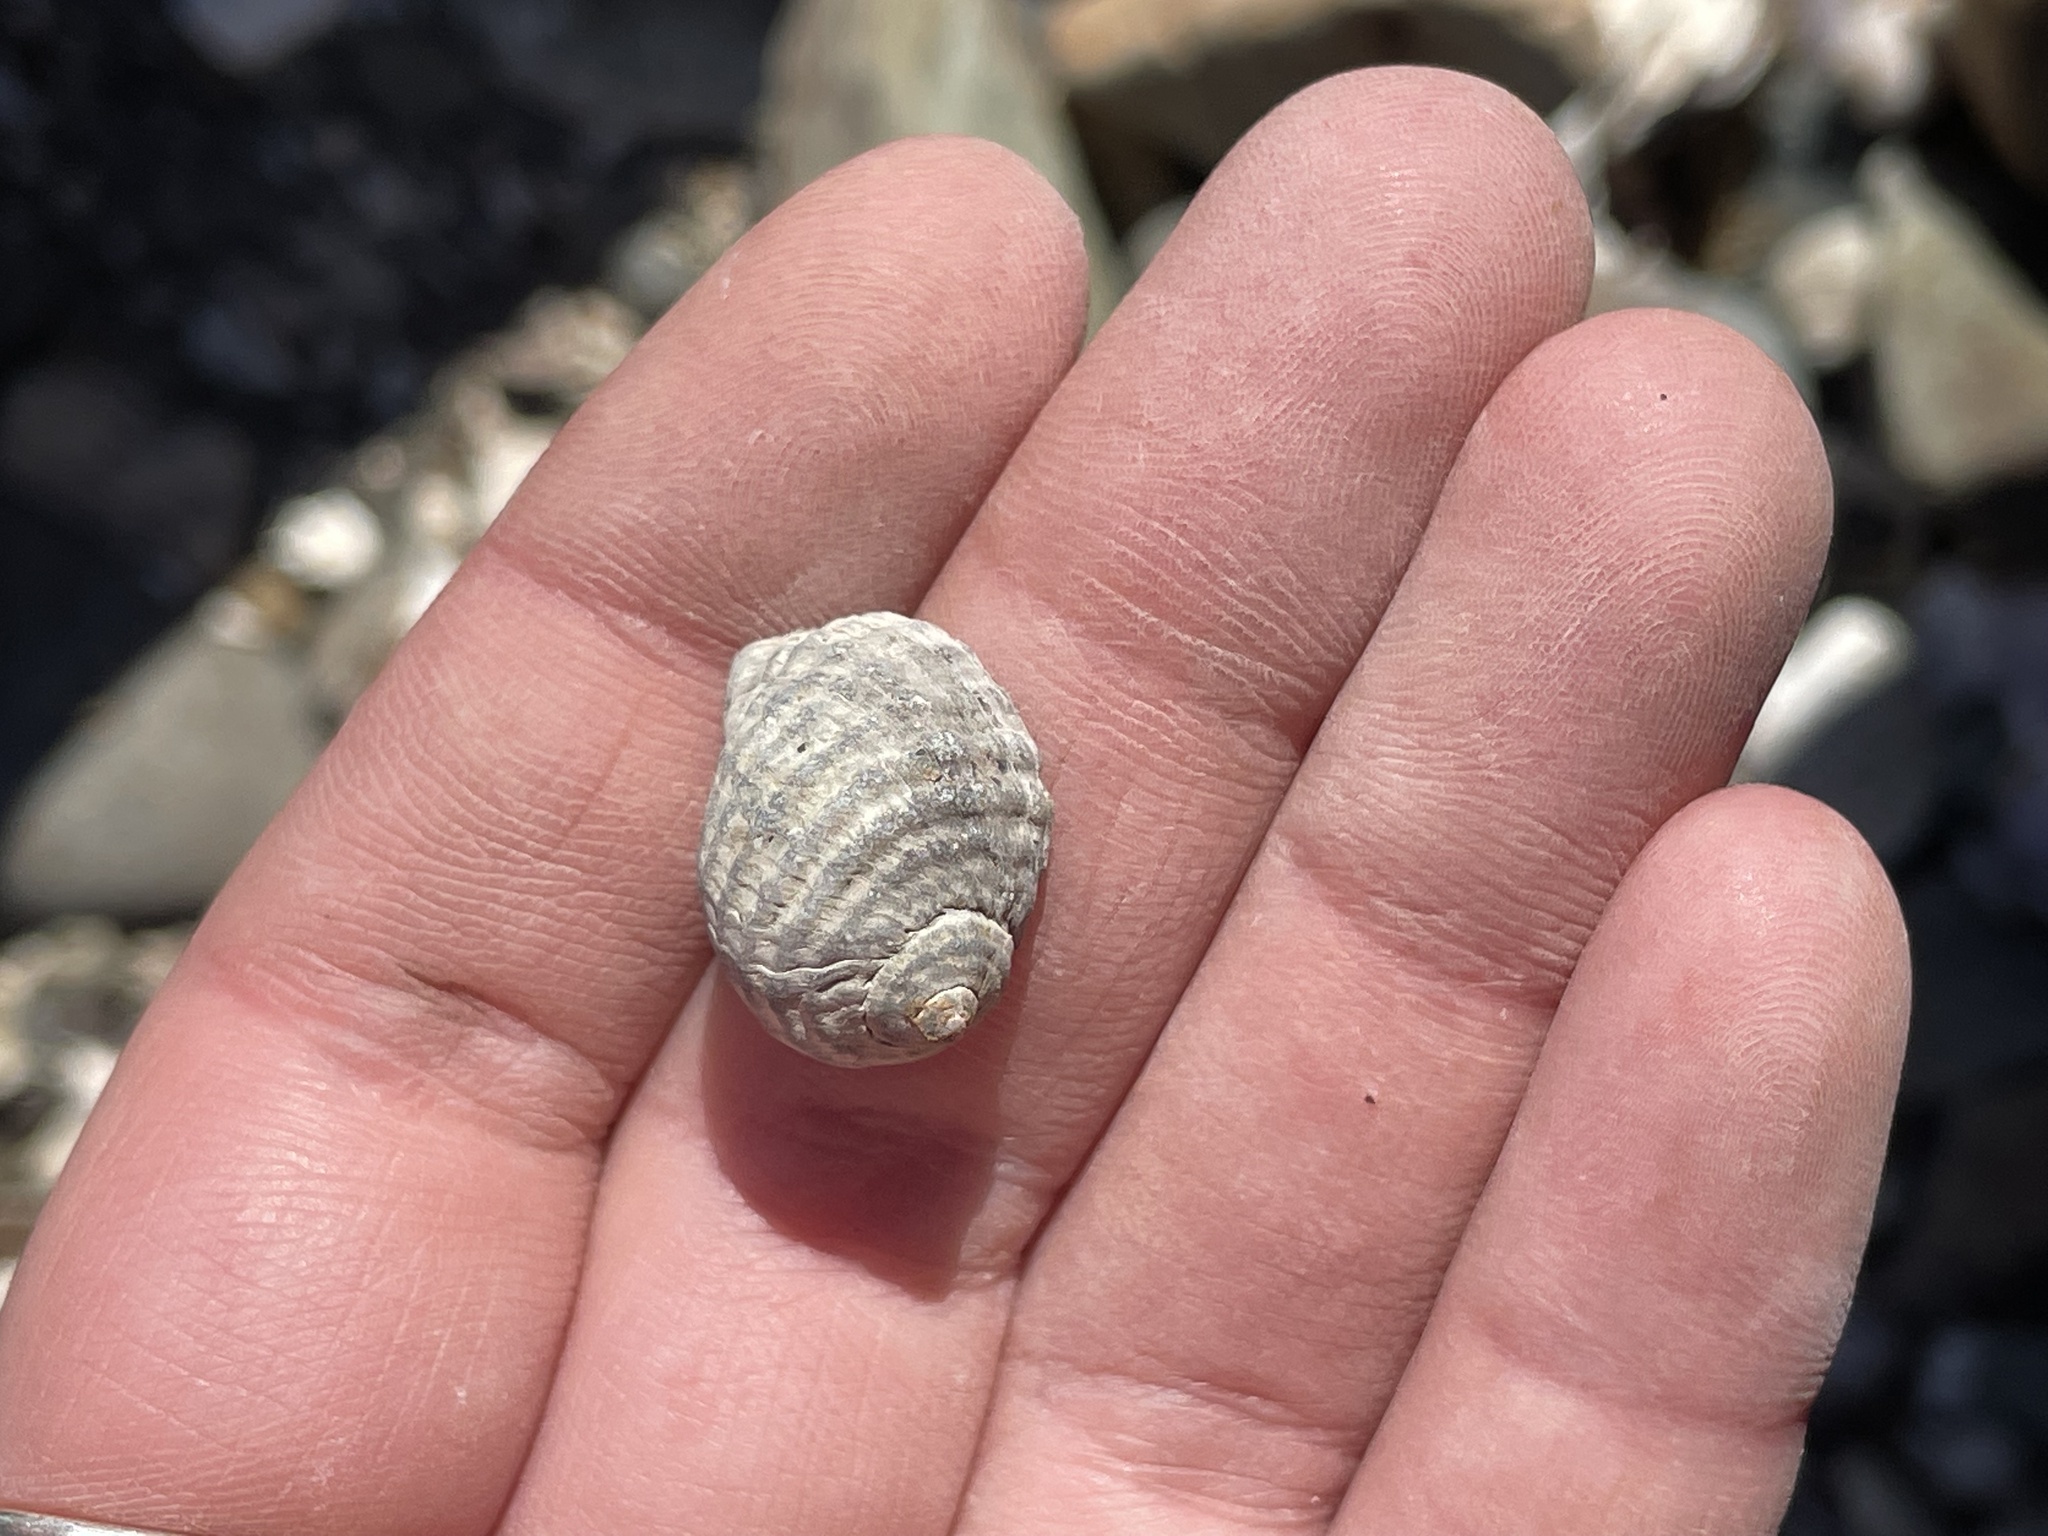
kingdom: Animalia
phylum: Mollusca
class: Gastropoda
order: Neogastropoda
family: Muricidae
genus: Nucella
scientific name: Nucella lapillus
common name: Dog whelk
